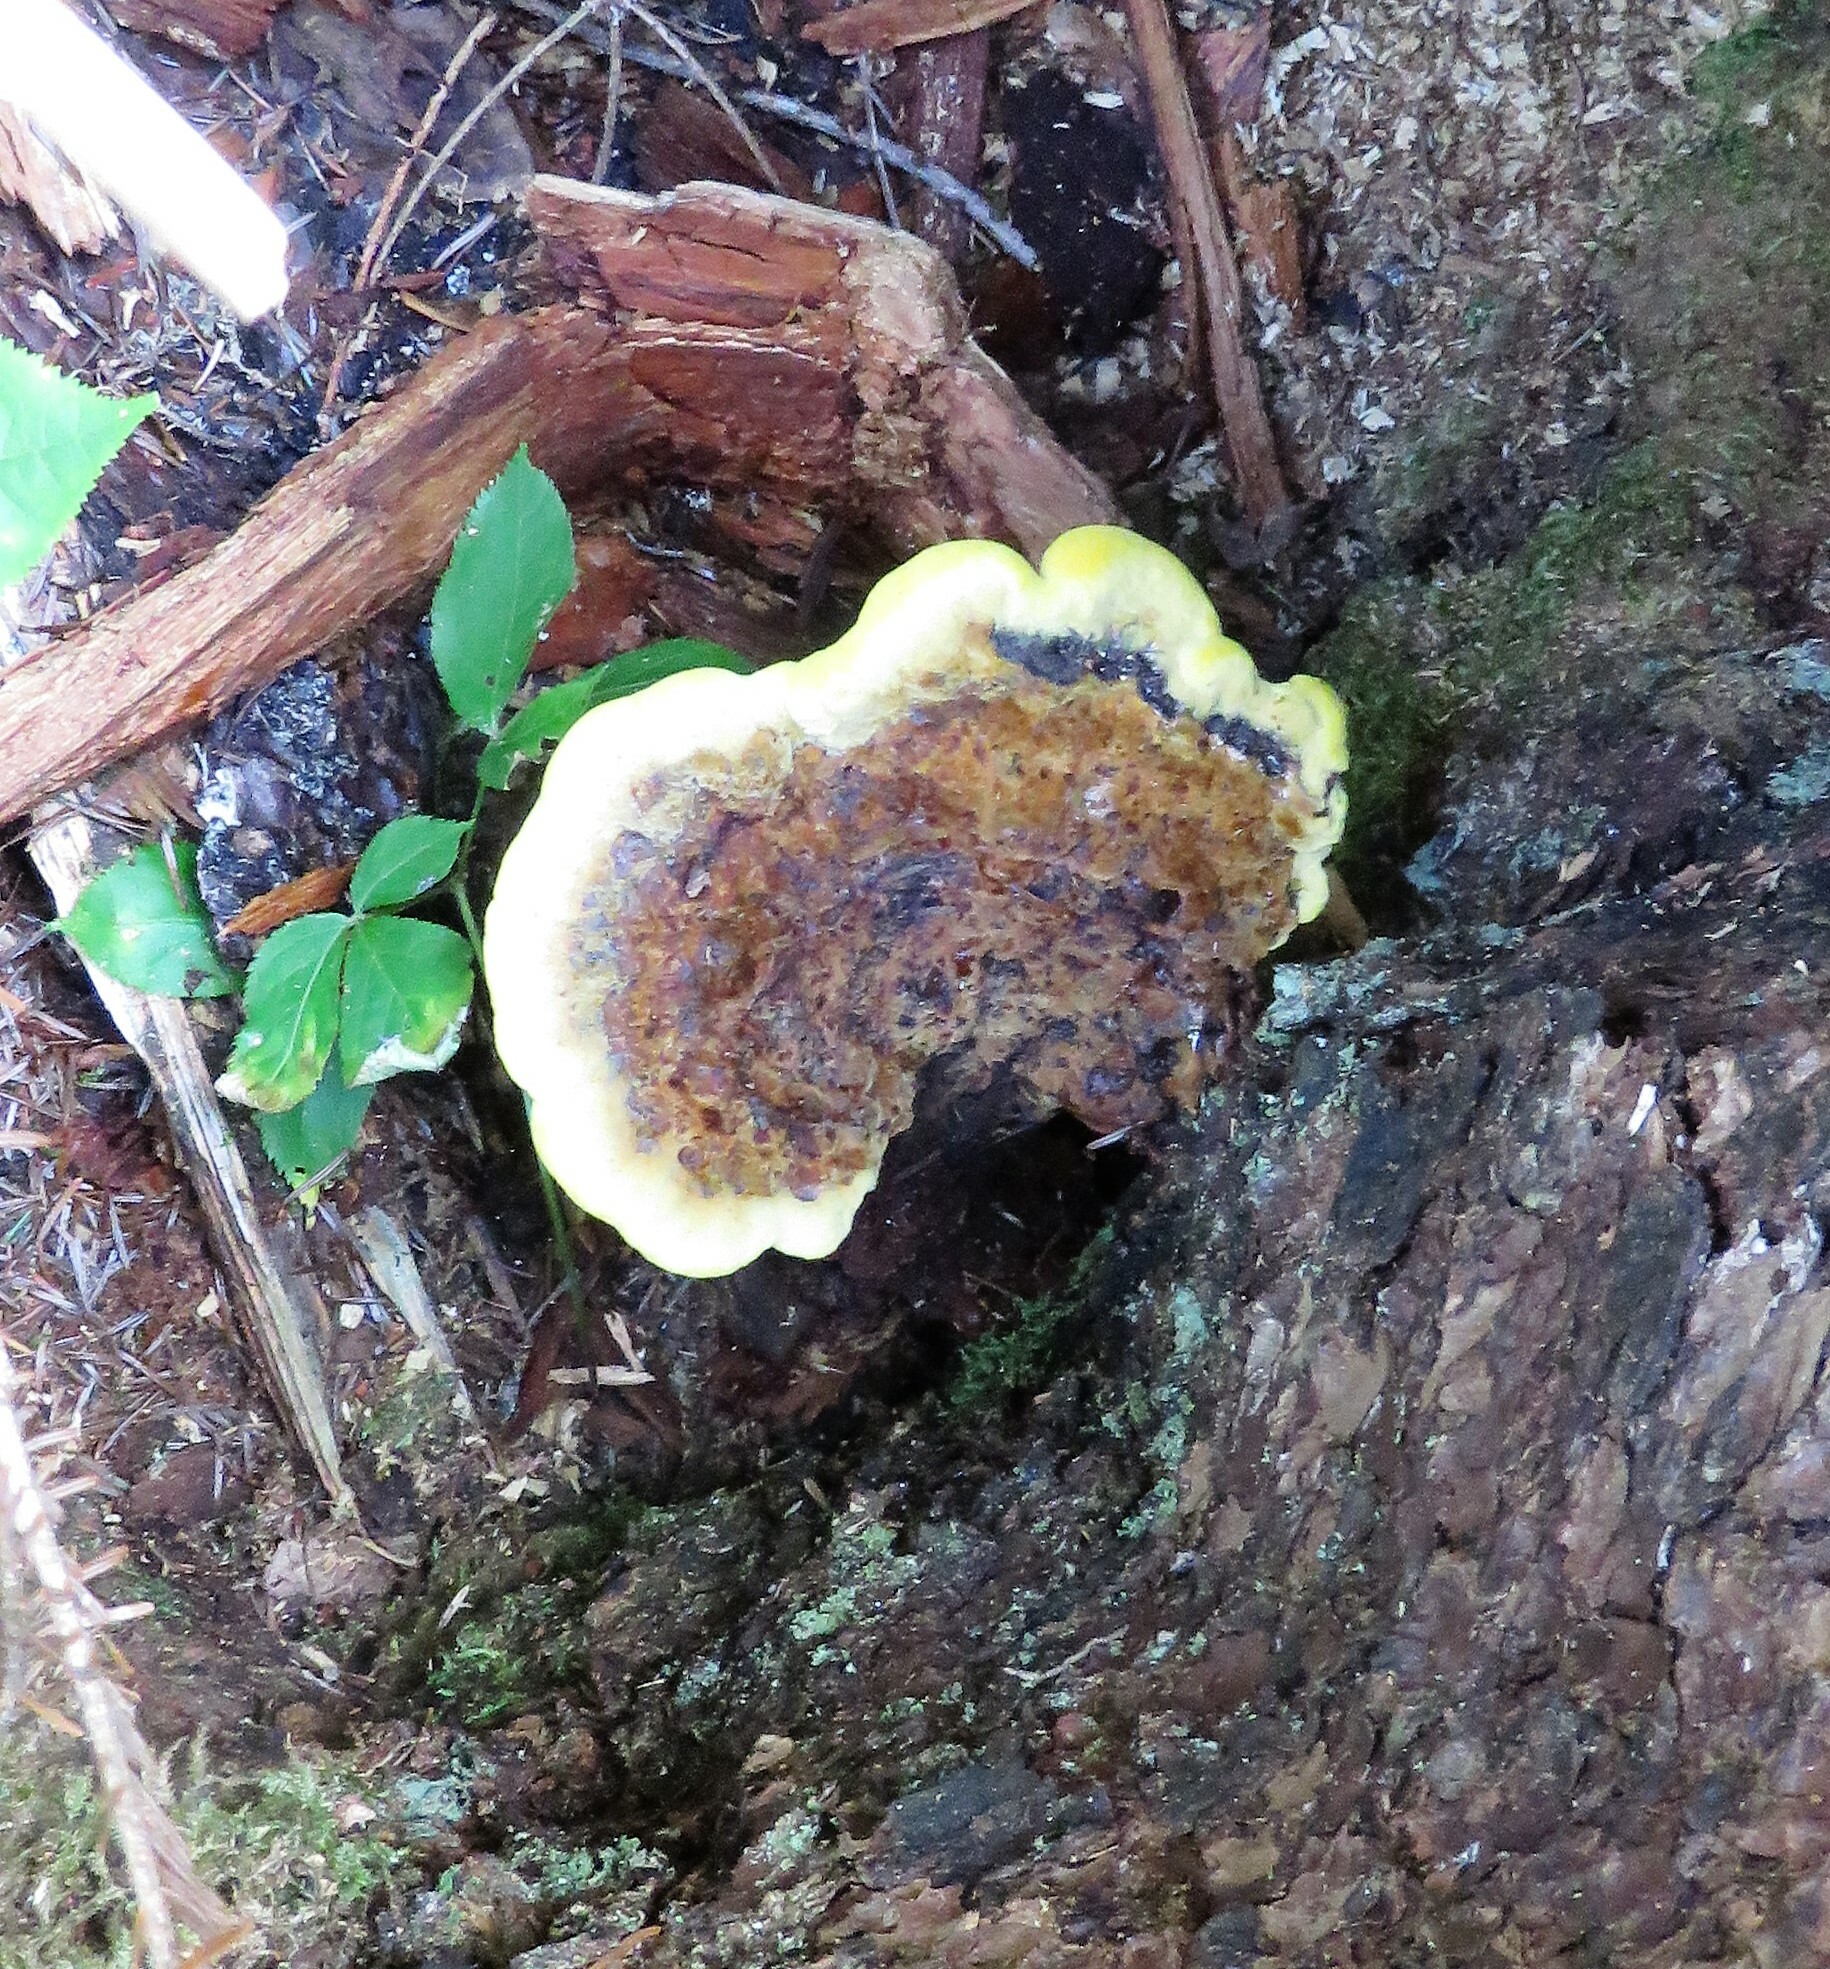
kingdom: Fungi
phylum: Basidiomycota
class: Agaricomycetes
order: Polyporales
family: Laetiporaceae
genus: Phaeolus
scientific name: Phaeolus schweinitzii
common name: Dyer's mazegill
